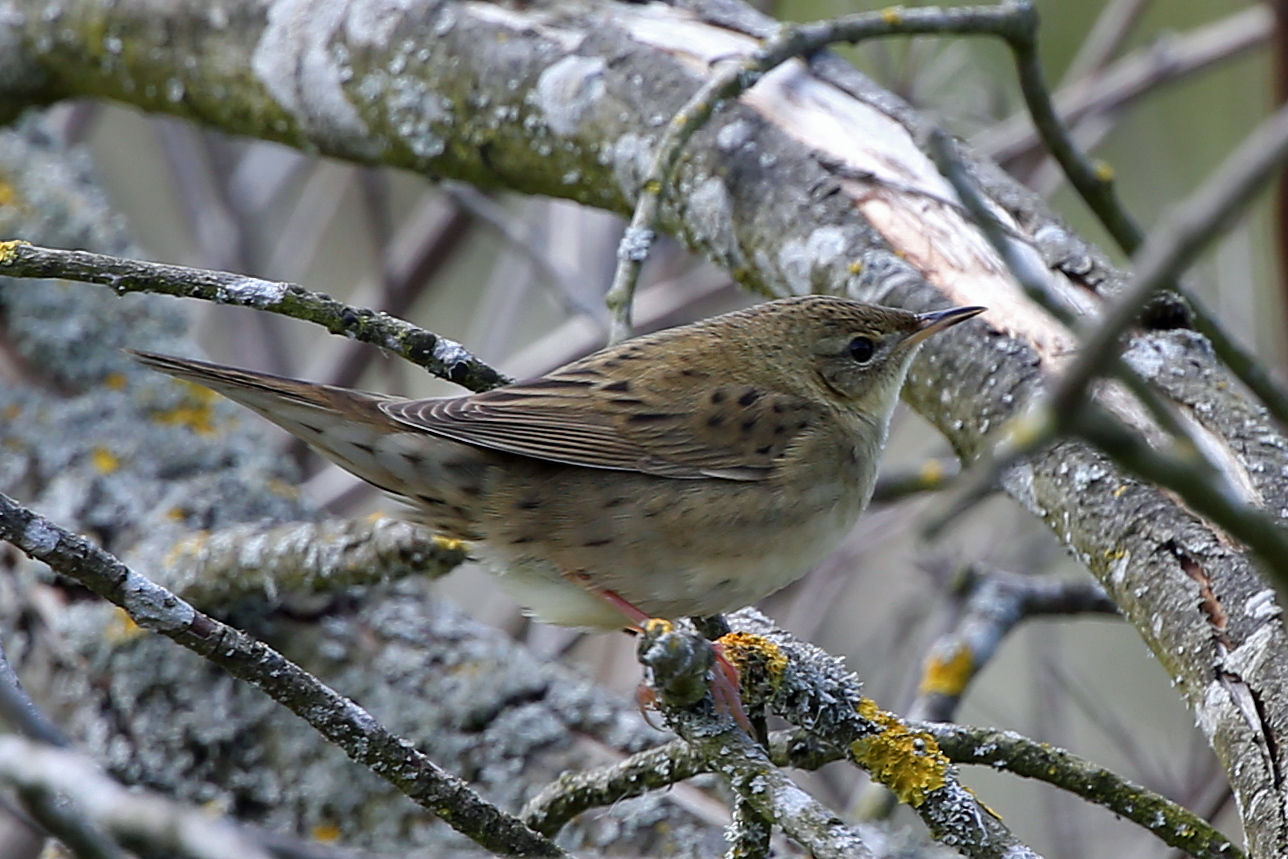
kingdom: Animalia
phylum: Chordata
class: Aves
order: Passeriformes
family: Locustellidae
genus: Locustella
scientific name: Locustella naevia
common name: Common grasshopper warbler
